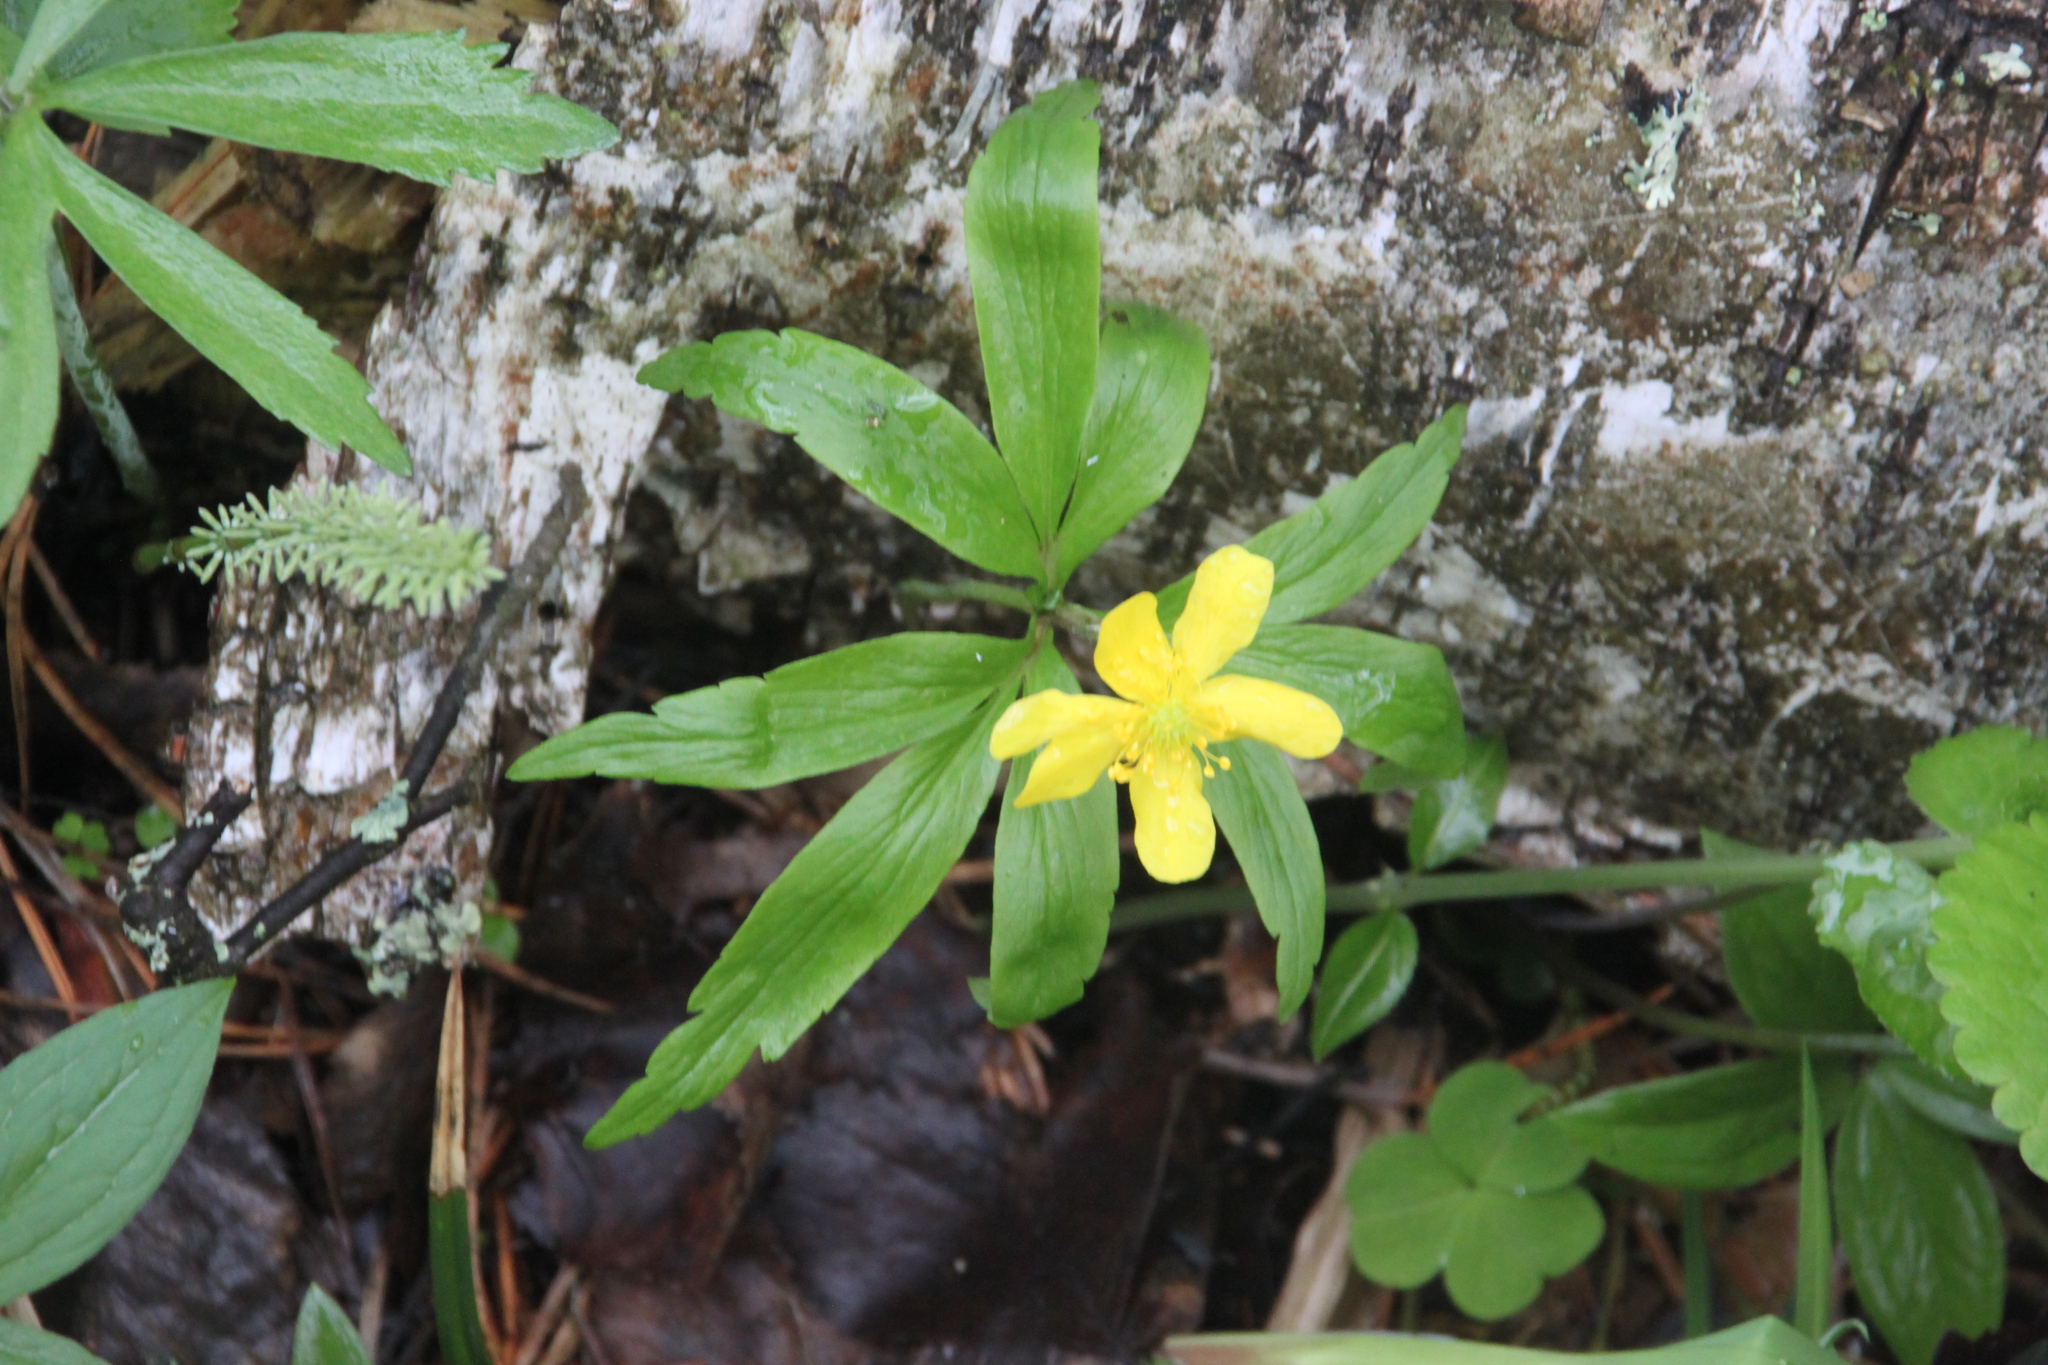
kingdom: Plantae
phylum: Tracheophyta
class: Magnoliopsida
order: Ranunculales
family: Ranunculaceae
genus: Anemone
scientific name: Anemone ranunculoides
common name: Yellow anemone
